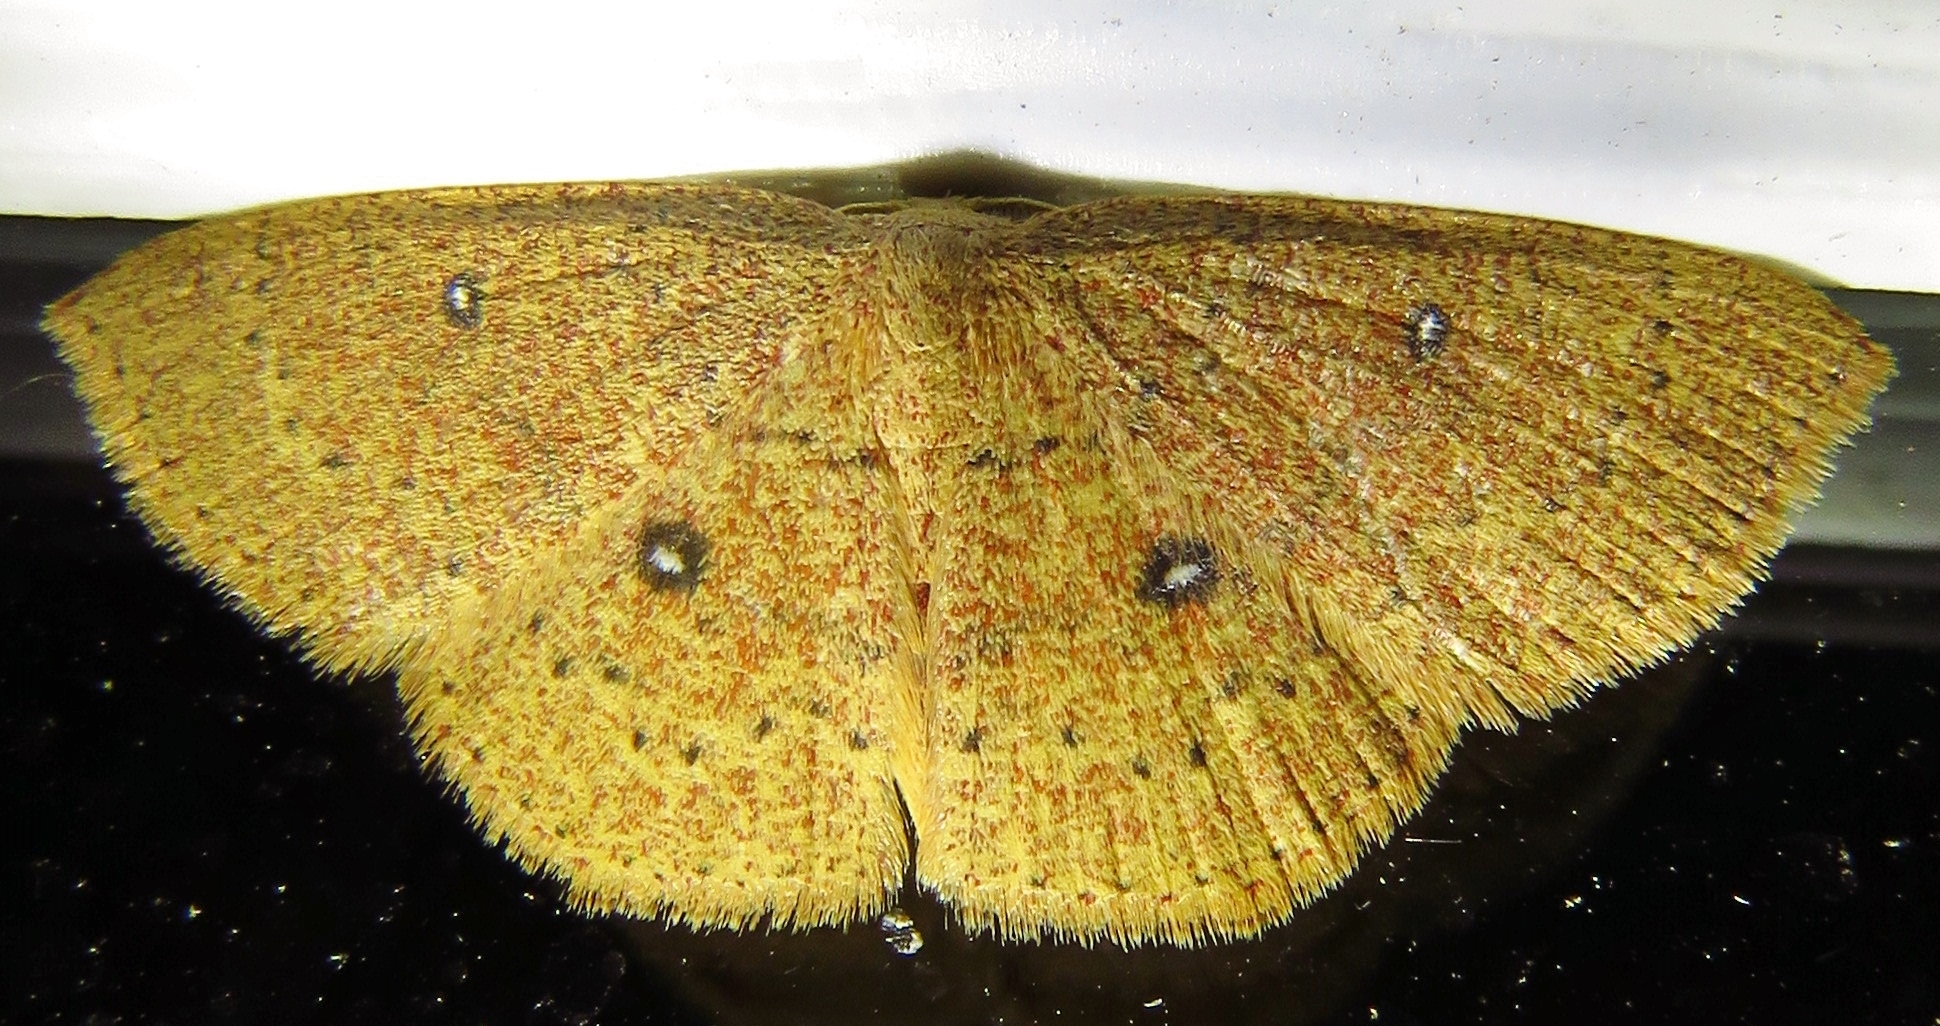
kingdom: Animalia
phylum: Arthropoda
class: Insecta
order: Lepidoptera
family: Geometridae
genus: Cyclophora
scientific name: Cyclophora packardi
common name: Packard's wave
